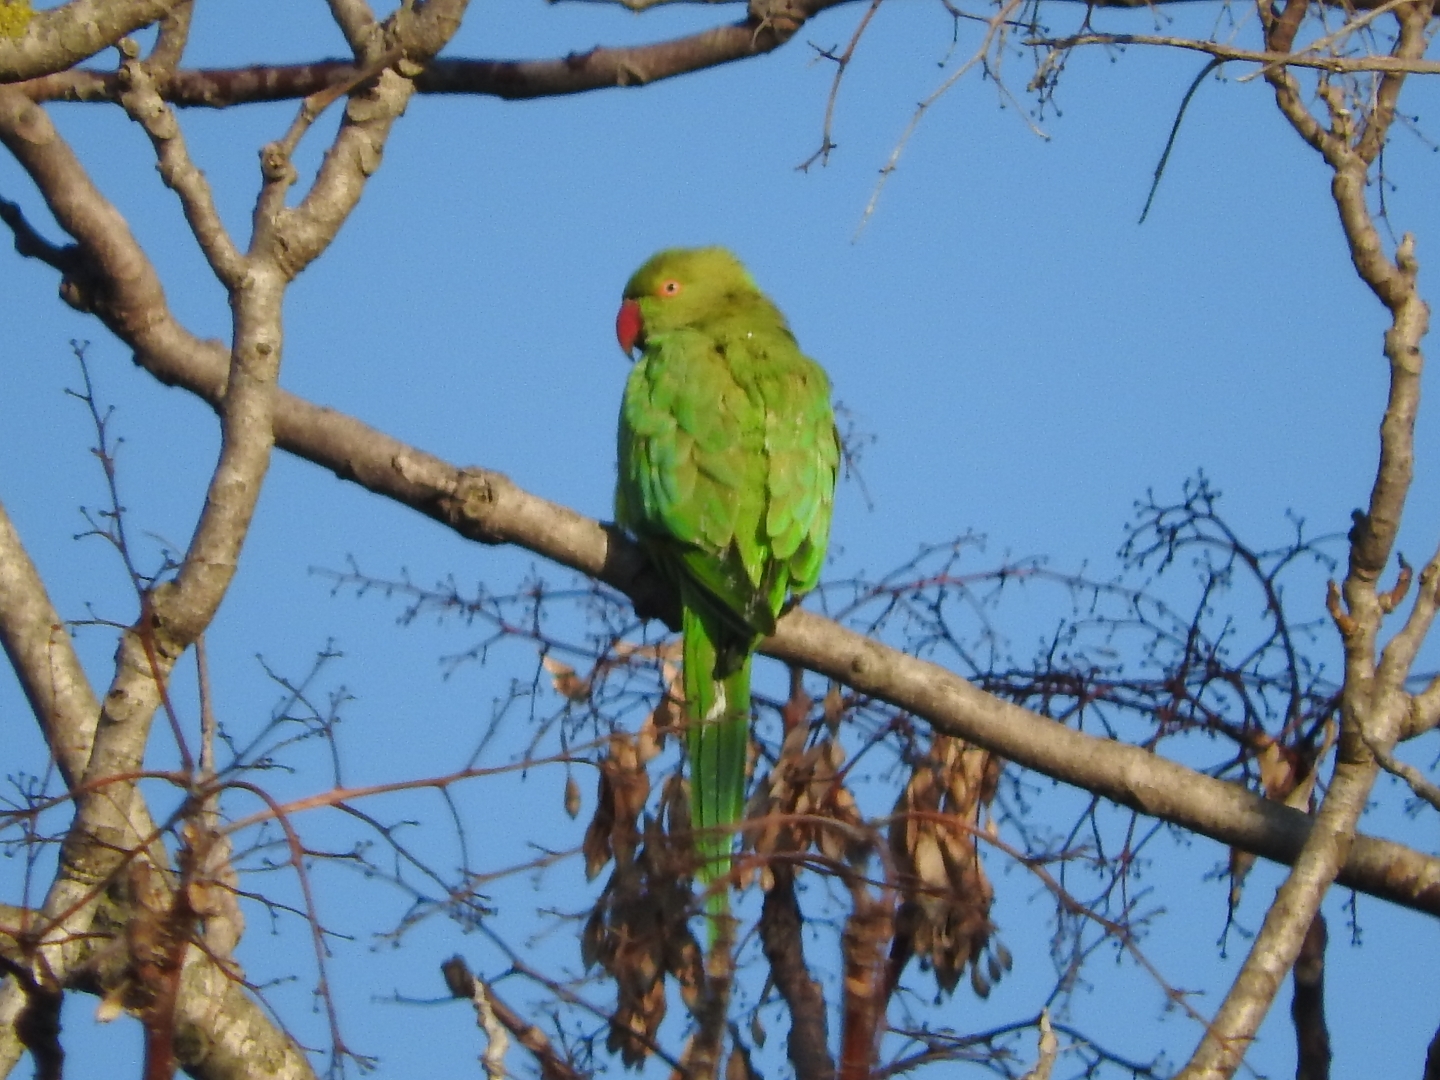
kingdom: Animalia
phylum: Chordata
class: Aves
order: Psittaciformes
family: Psittacidae
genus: Psittacula
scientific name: Psittacula krameri
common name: Rose-ringed parakeet
